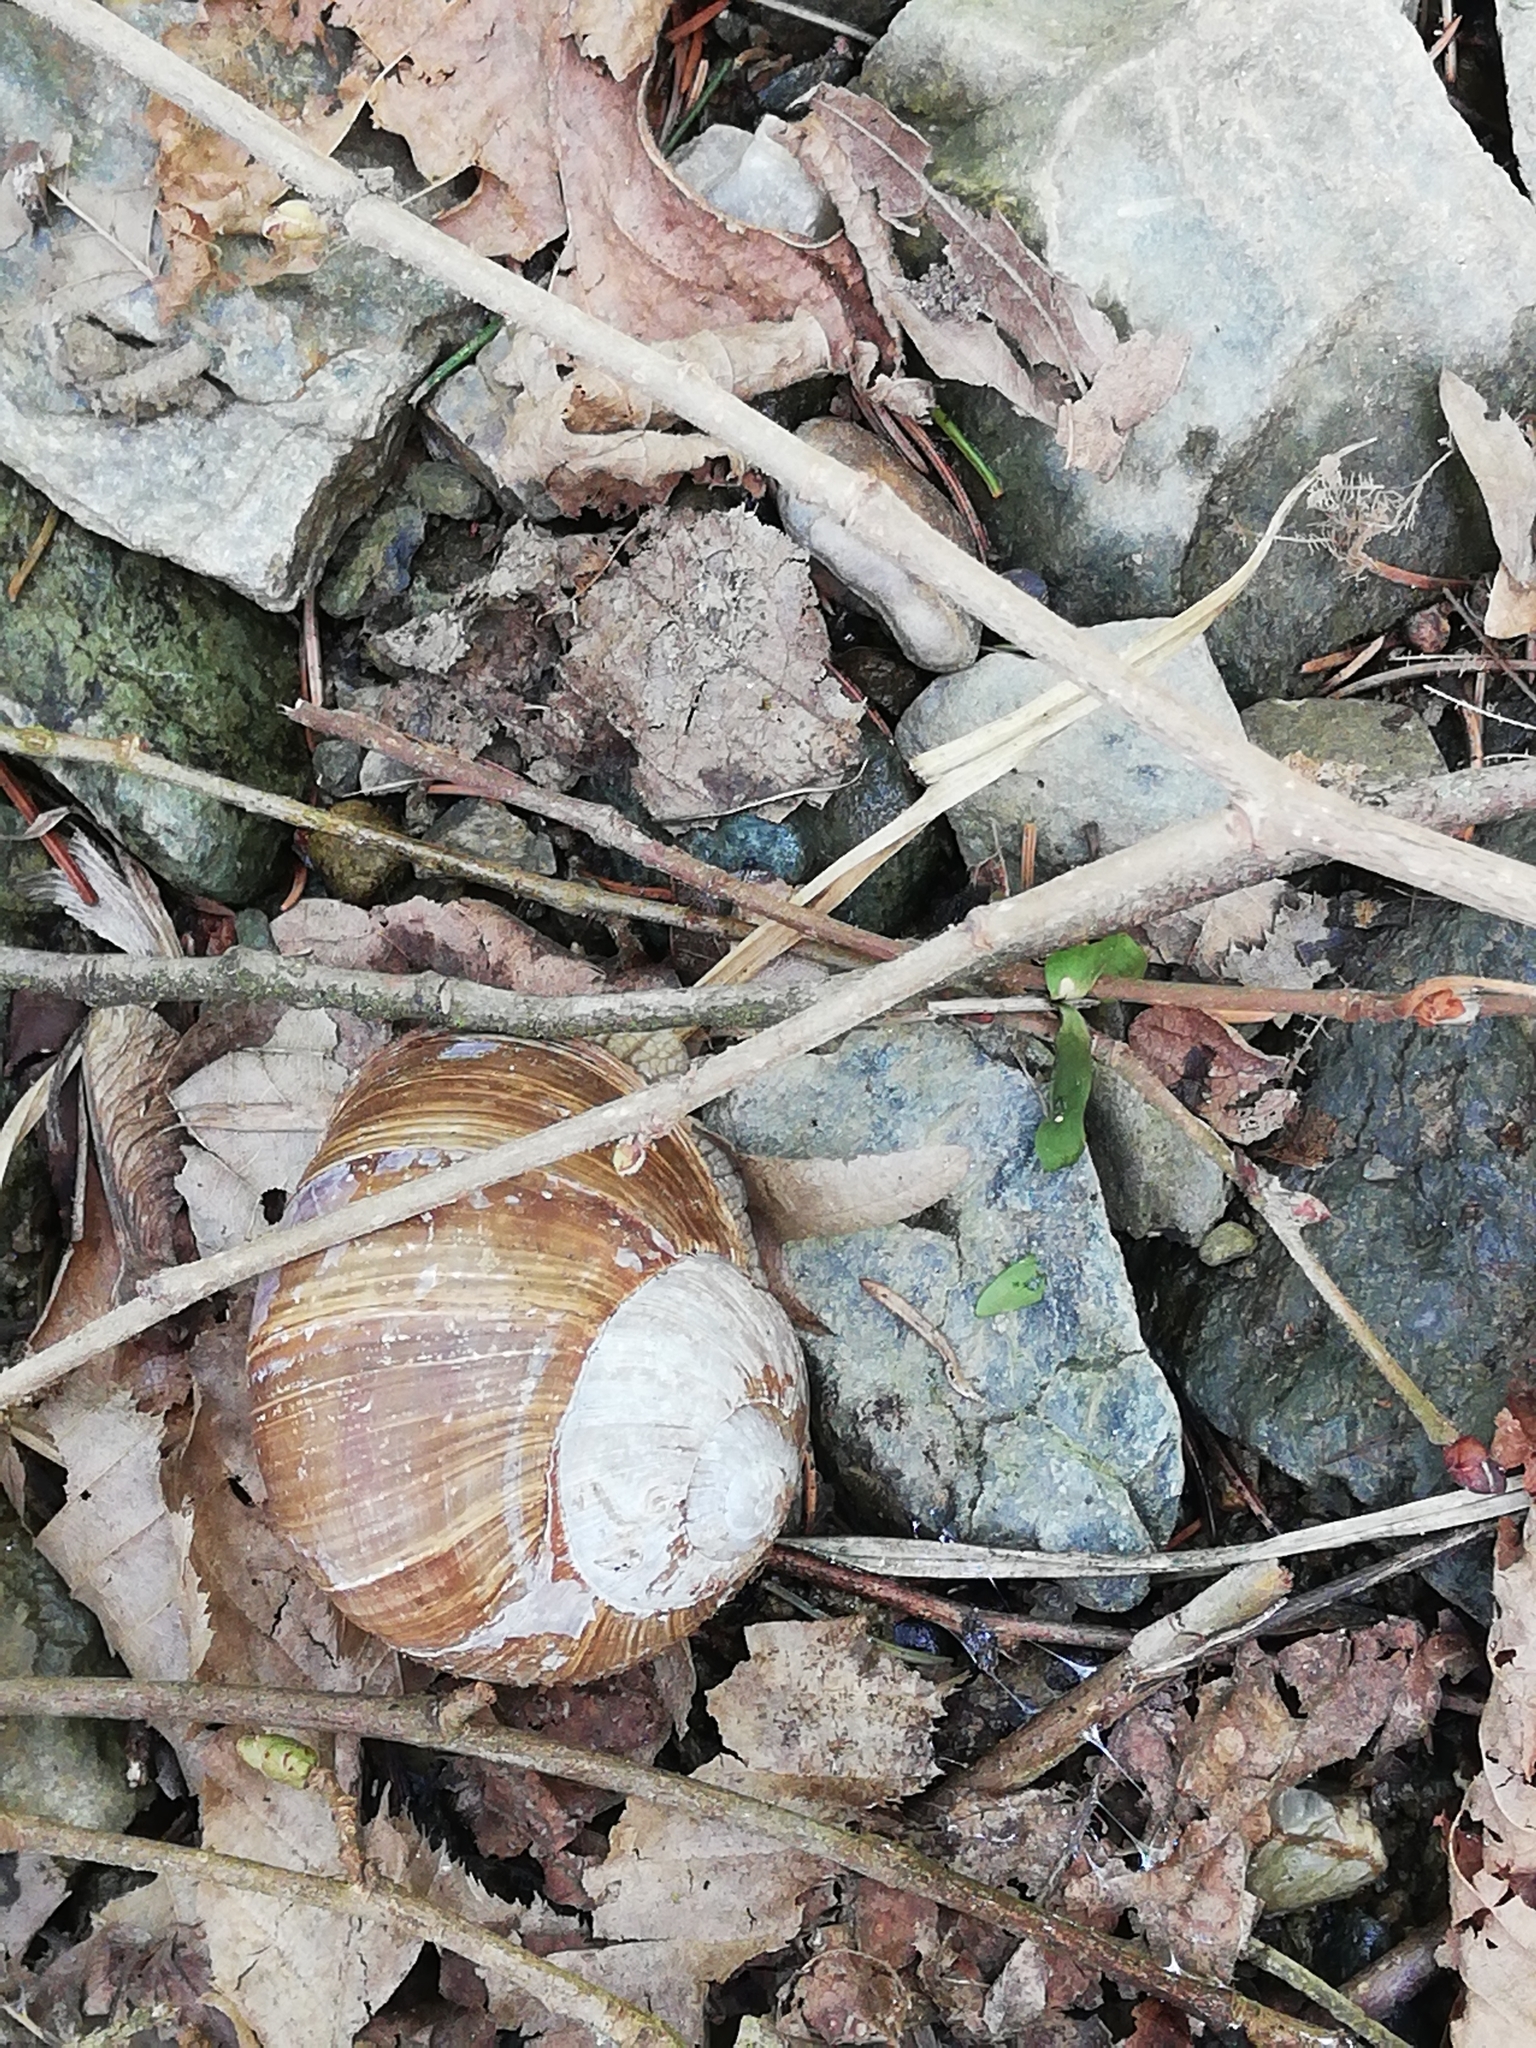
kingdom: Animalia
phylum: Mollusca
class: Gastropoda
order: Stylommatophora
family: Helicidae
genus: Helix
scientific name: Helix pomatia
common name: Roman snail
